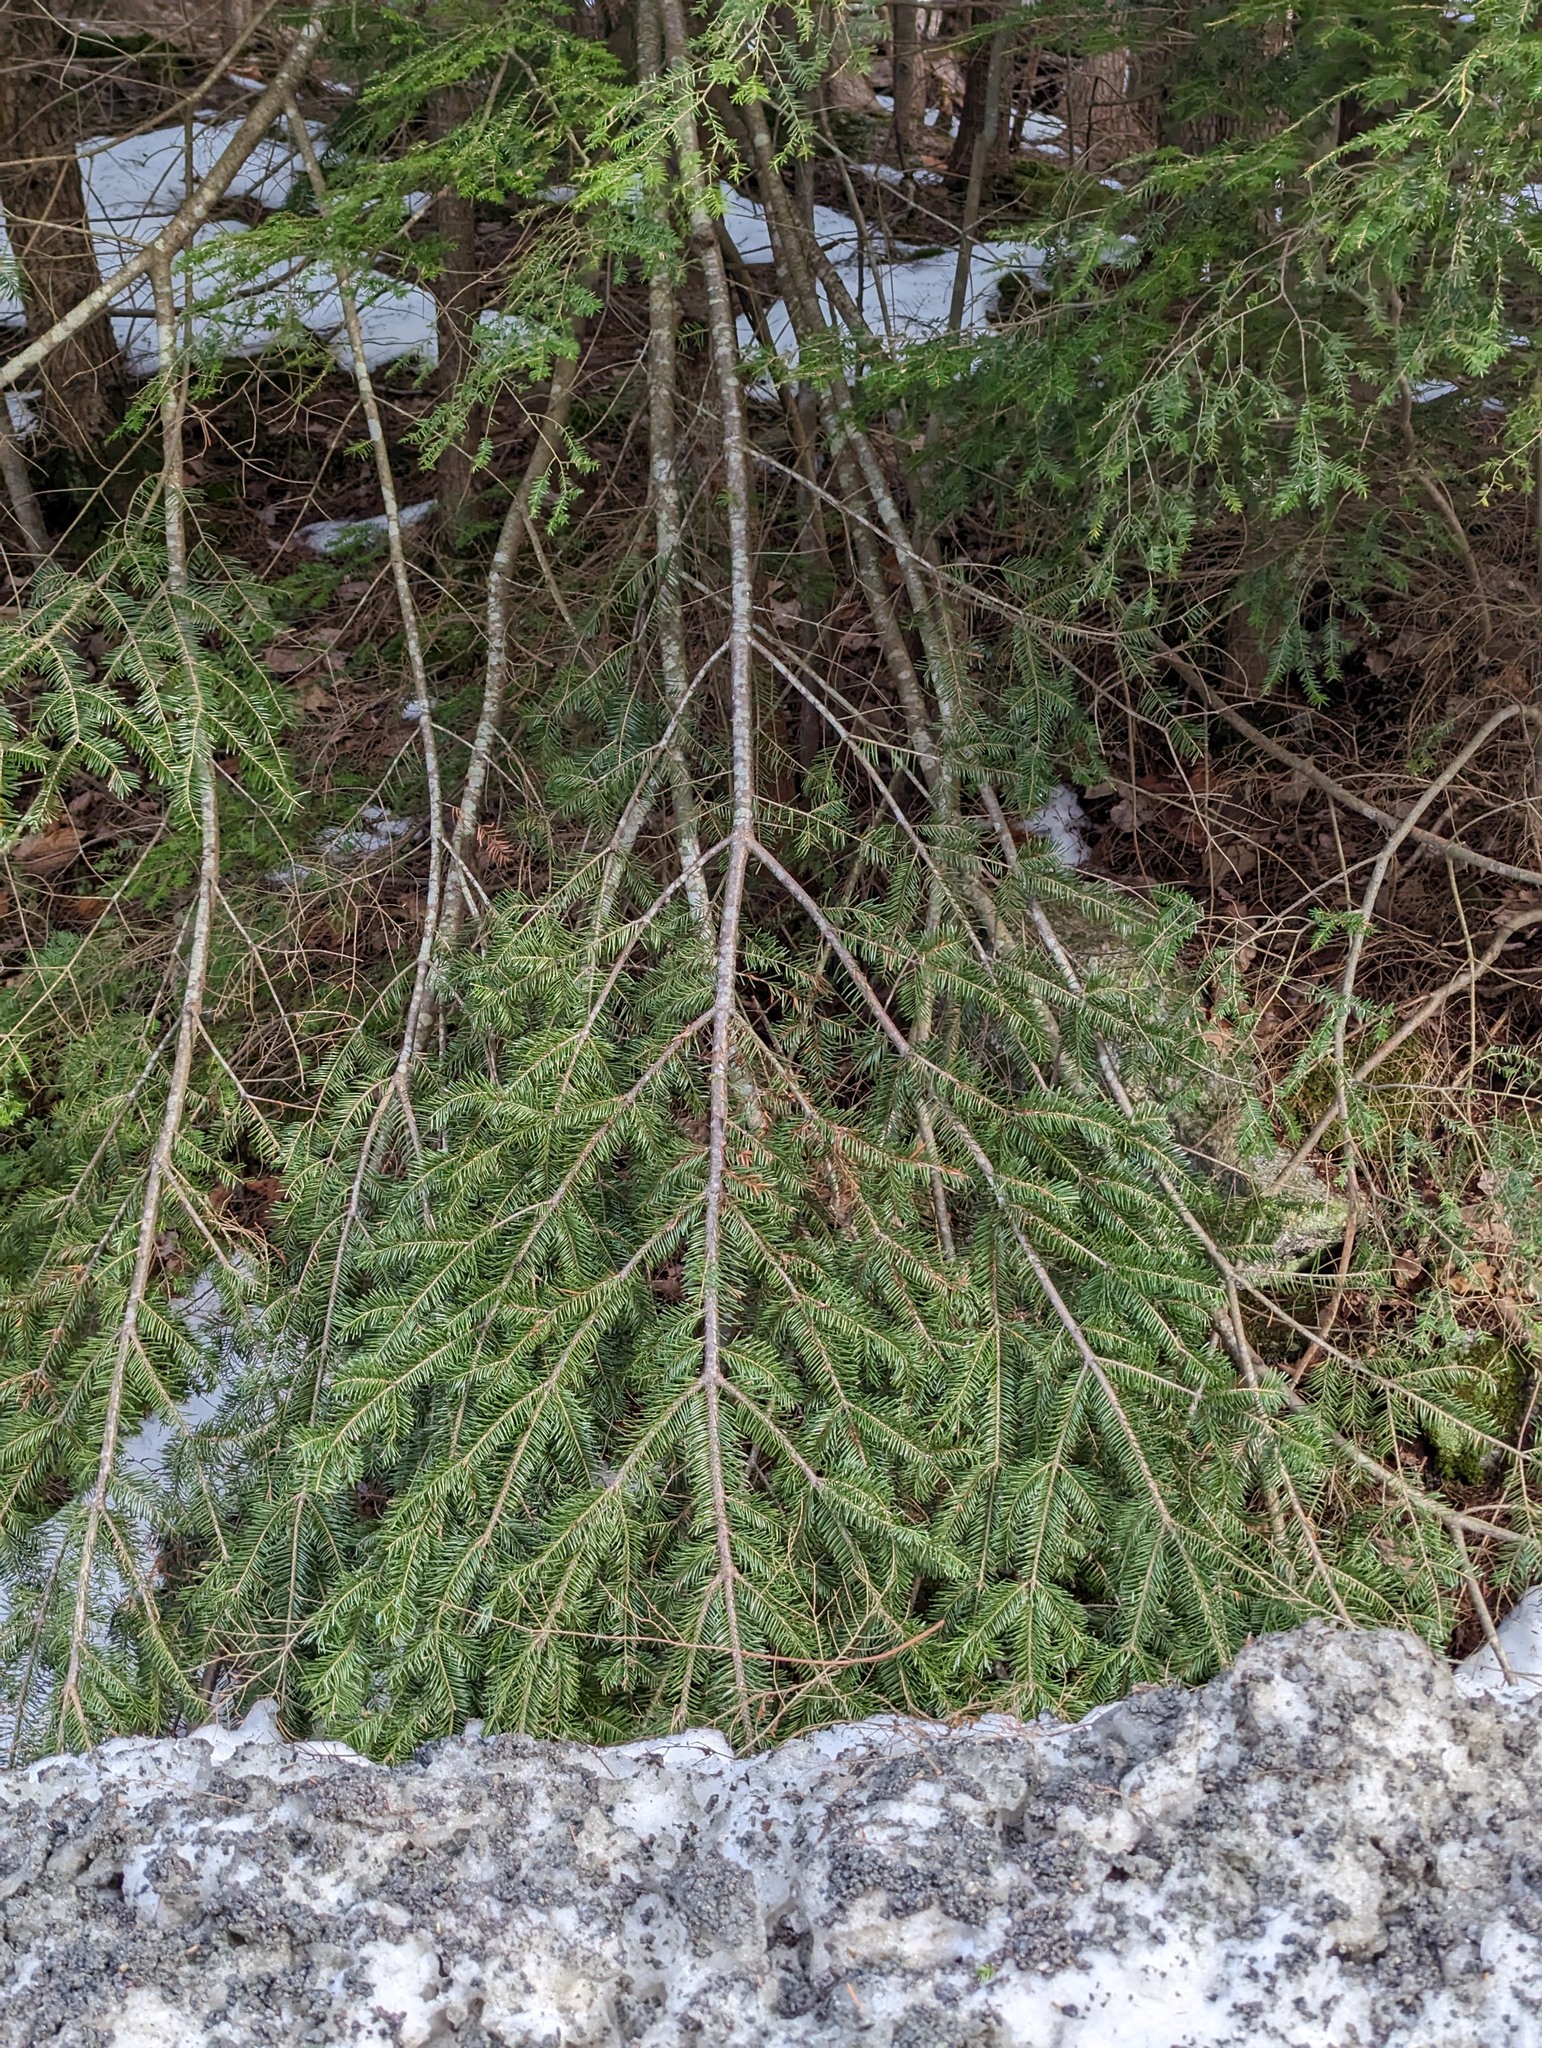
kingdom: Plantae
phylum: Tracheophyta
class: Pinopsida
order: Pinales
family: Pinaceae
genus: Abies
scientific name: Abies balsamea
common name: Balsam fir
